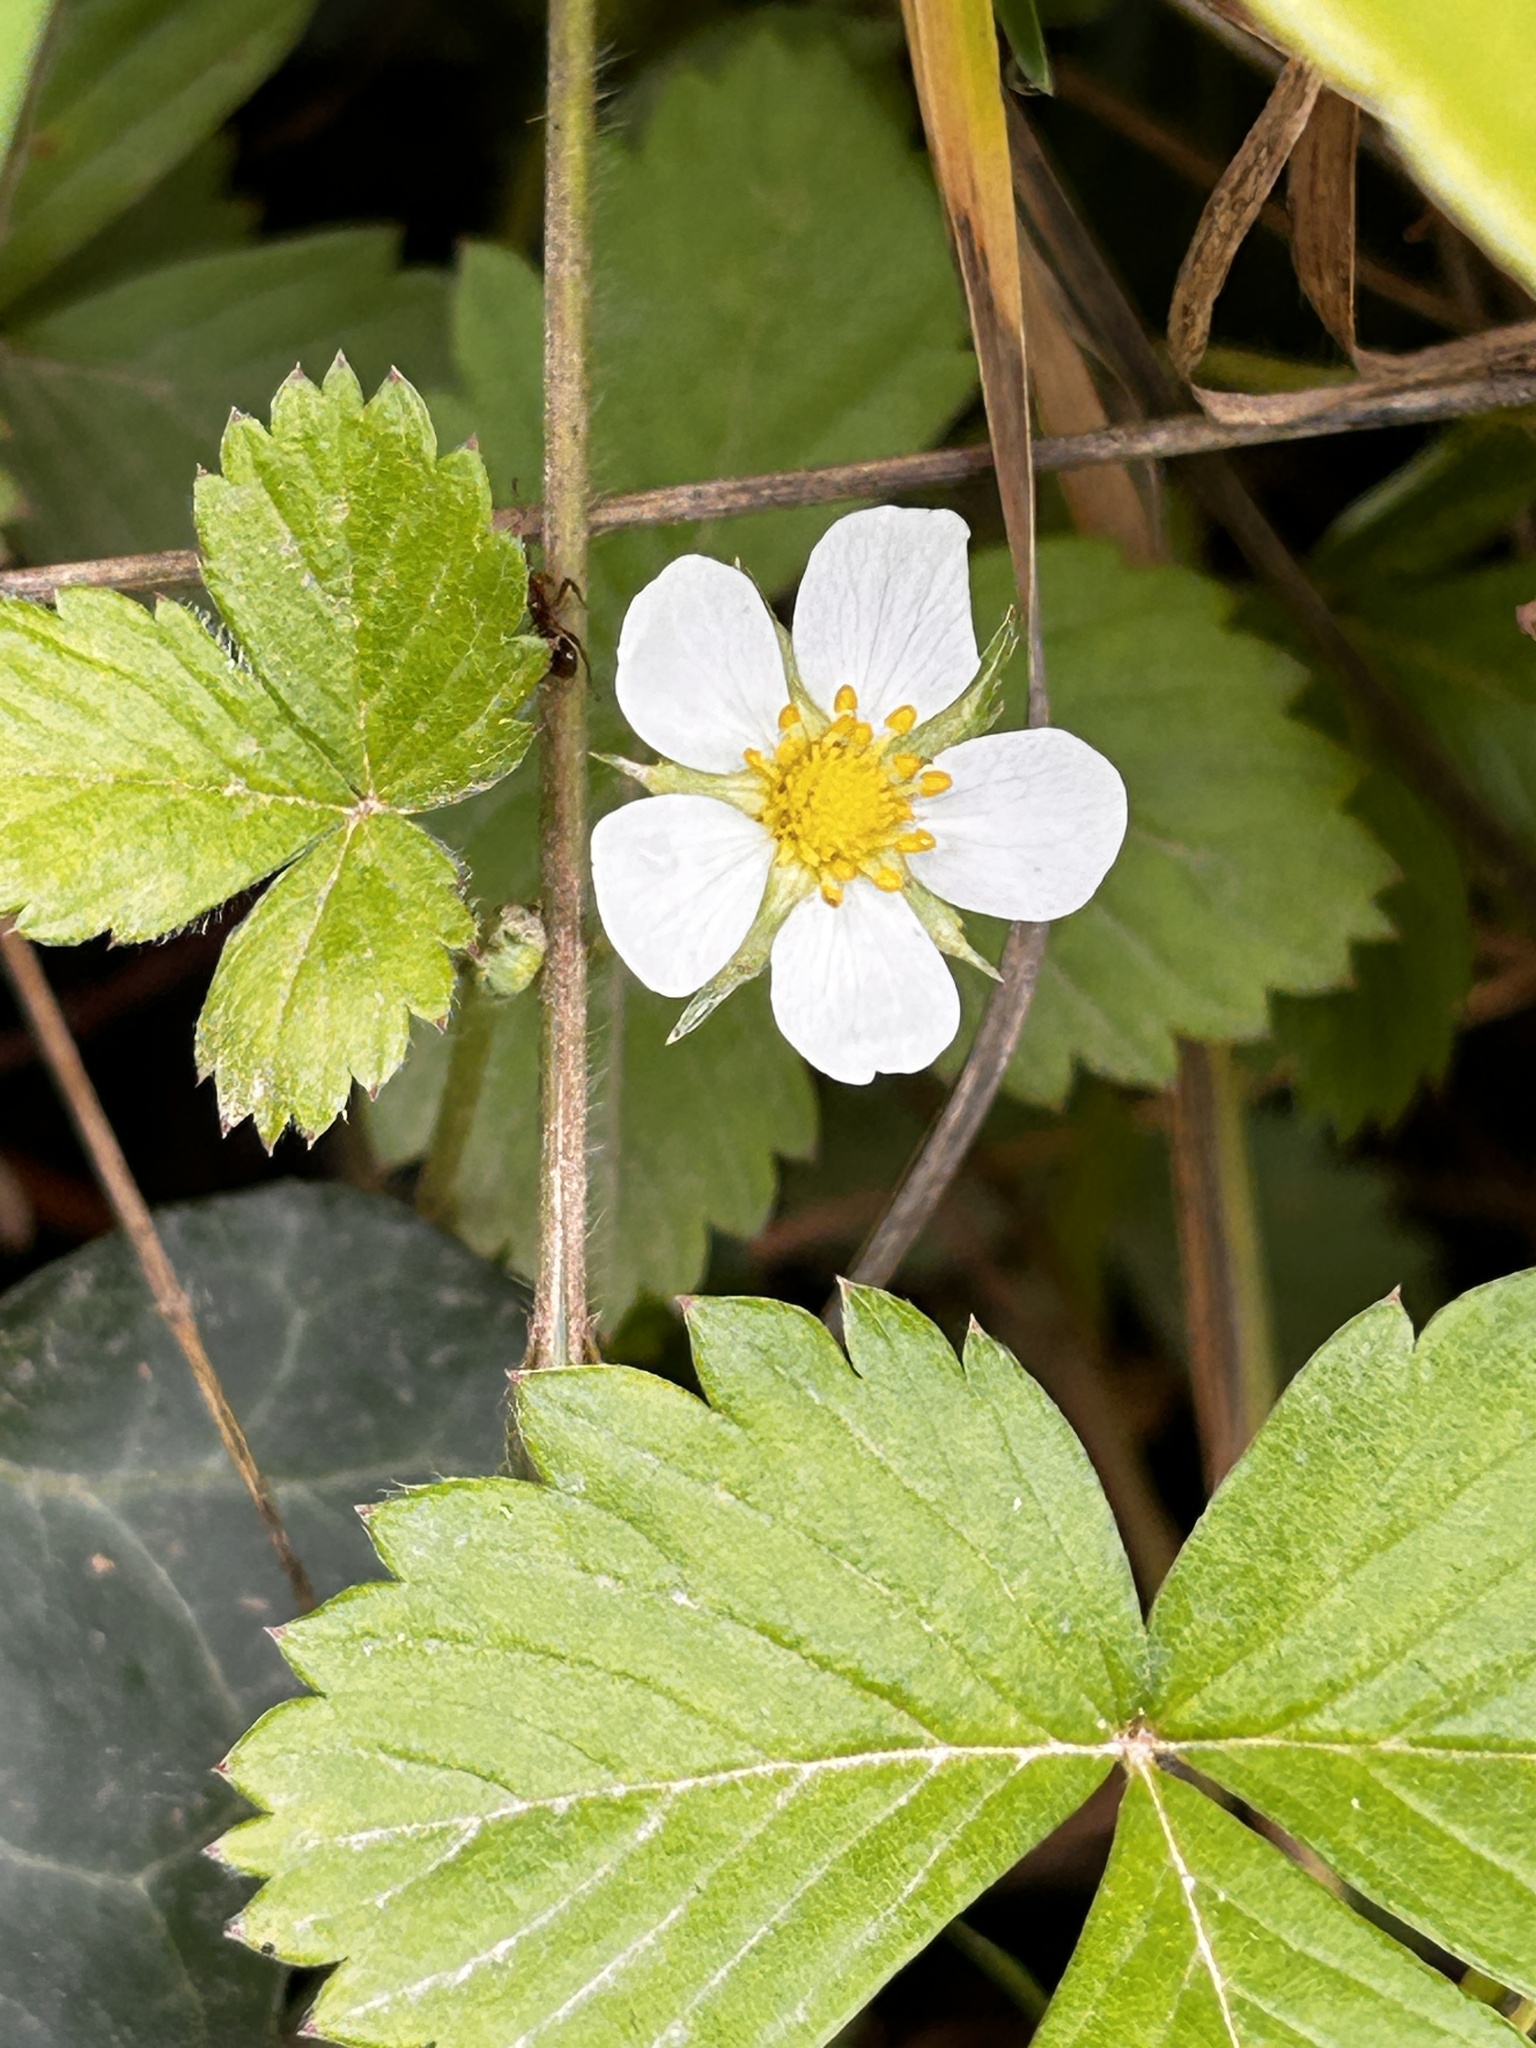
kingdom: Plantae
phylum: Tracheophyta
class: Magnoliopsida
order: Rosales
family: Rosaceae
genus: Fragaria
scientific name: Fragaria vesca
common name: Wild strawberry
